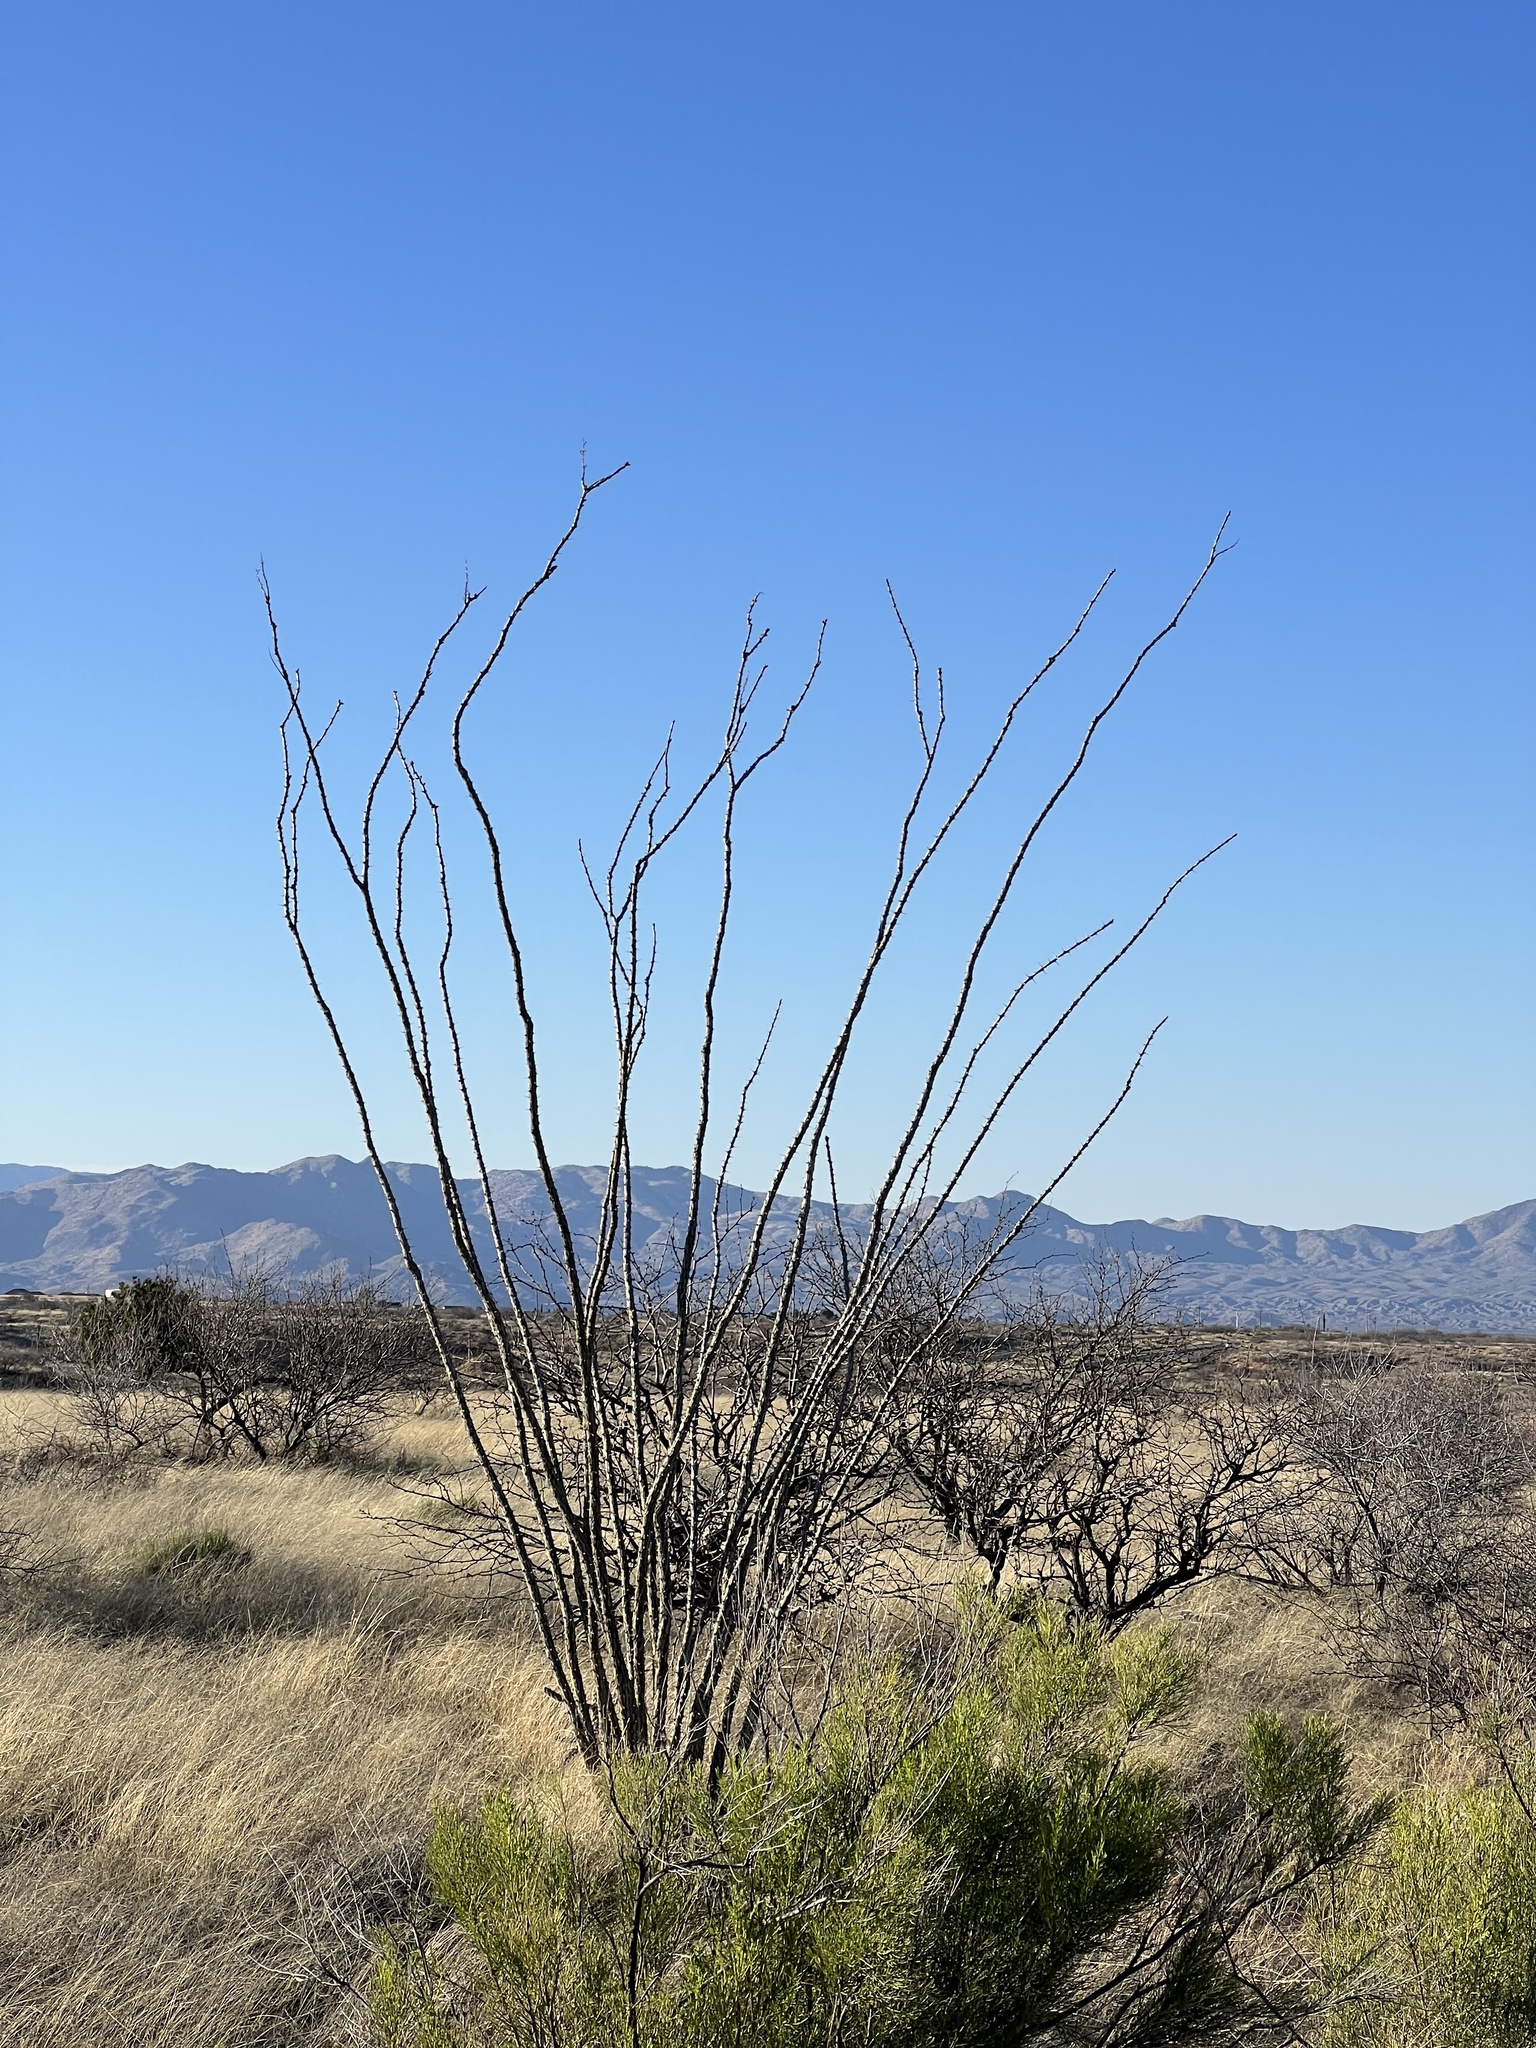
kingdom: Plantae
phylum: Tracheophyta
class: Magnoliopsida
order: Ericales
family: Fouquieriaceae
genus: Fouquieria
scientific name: Fouquieria splendens
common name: Vine-cactus
